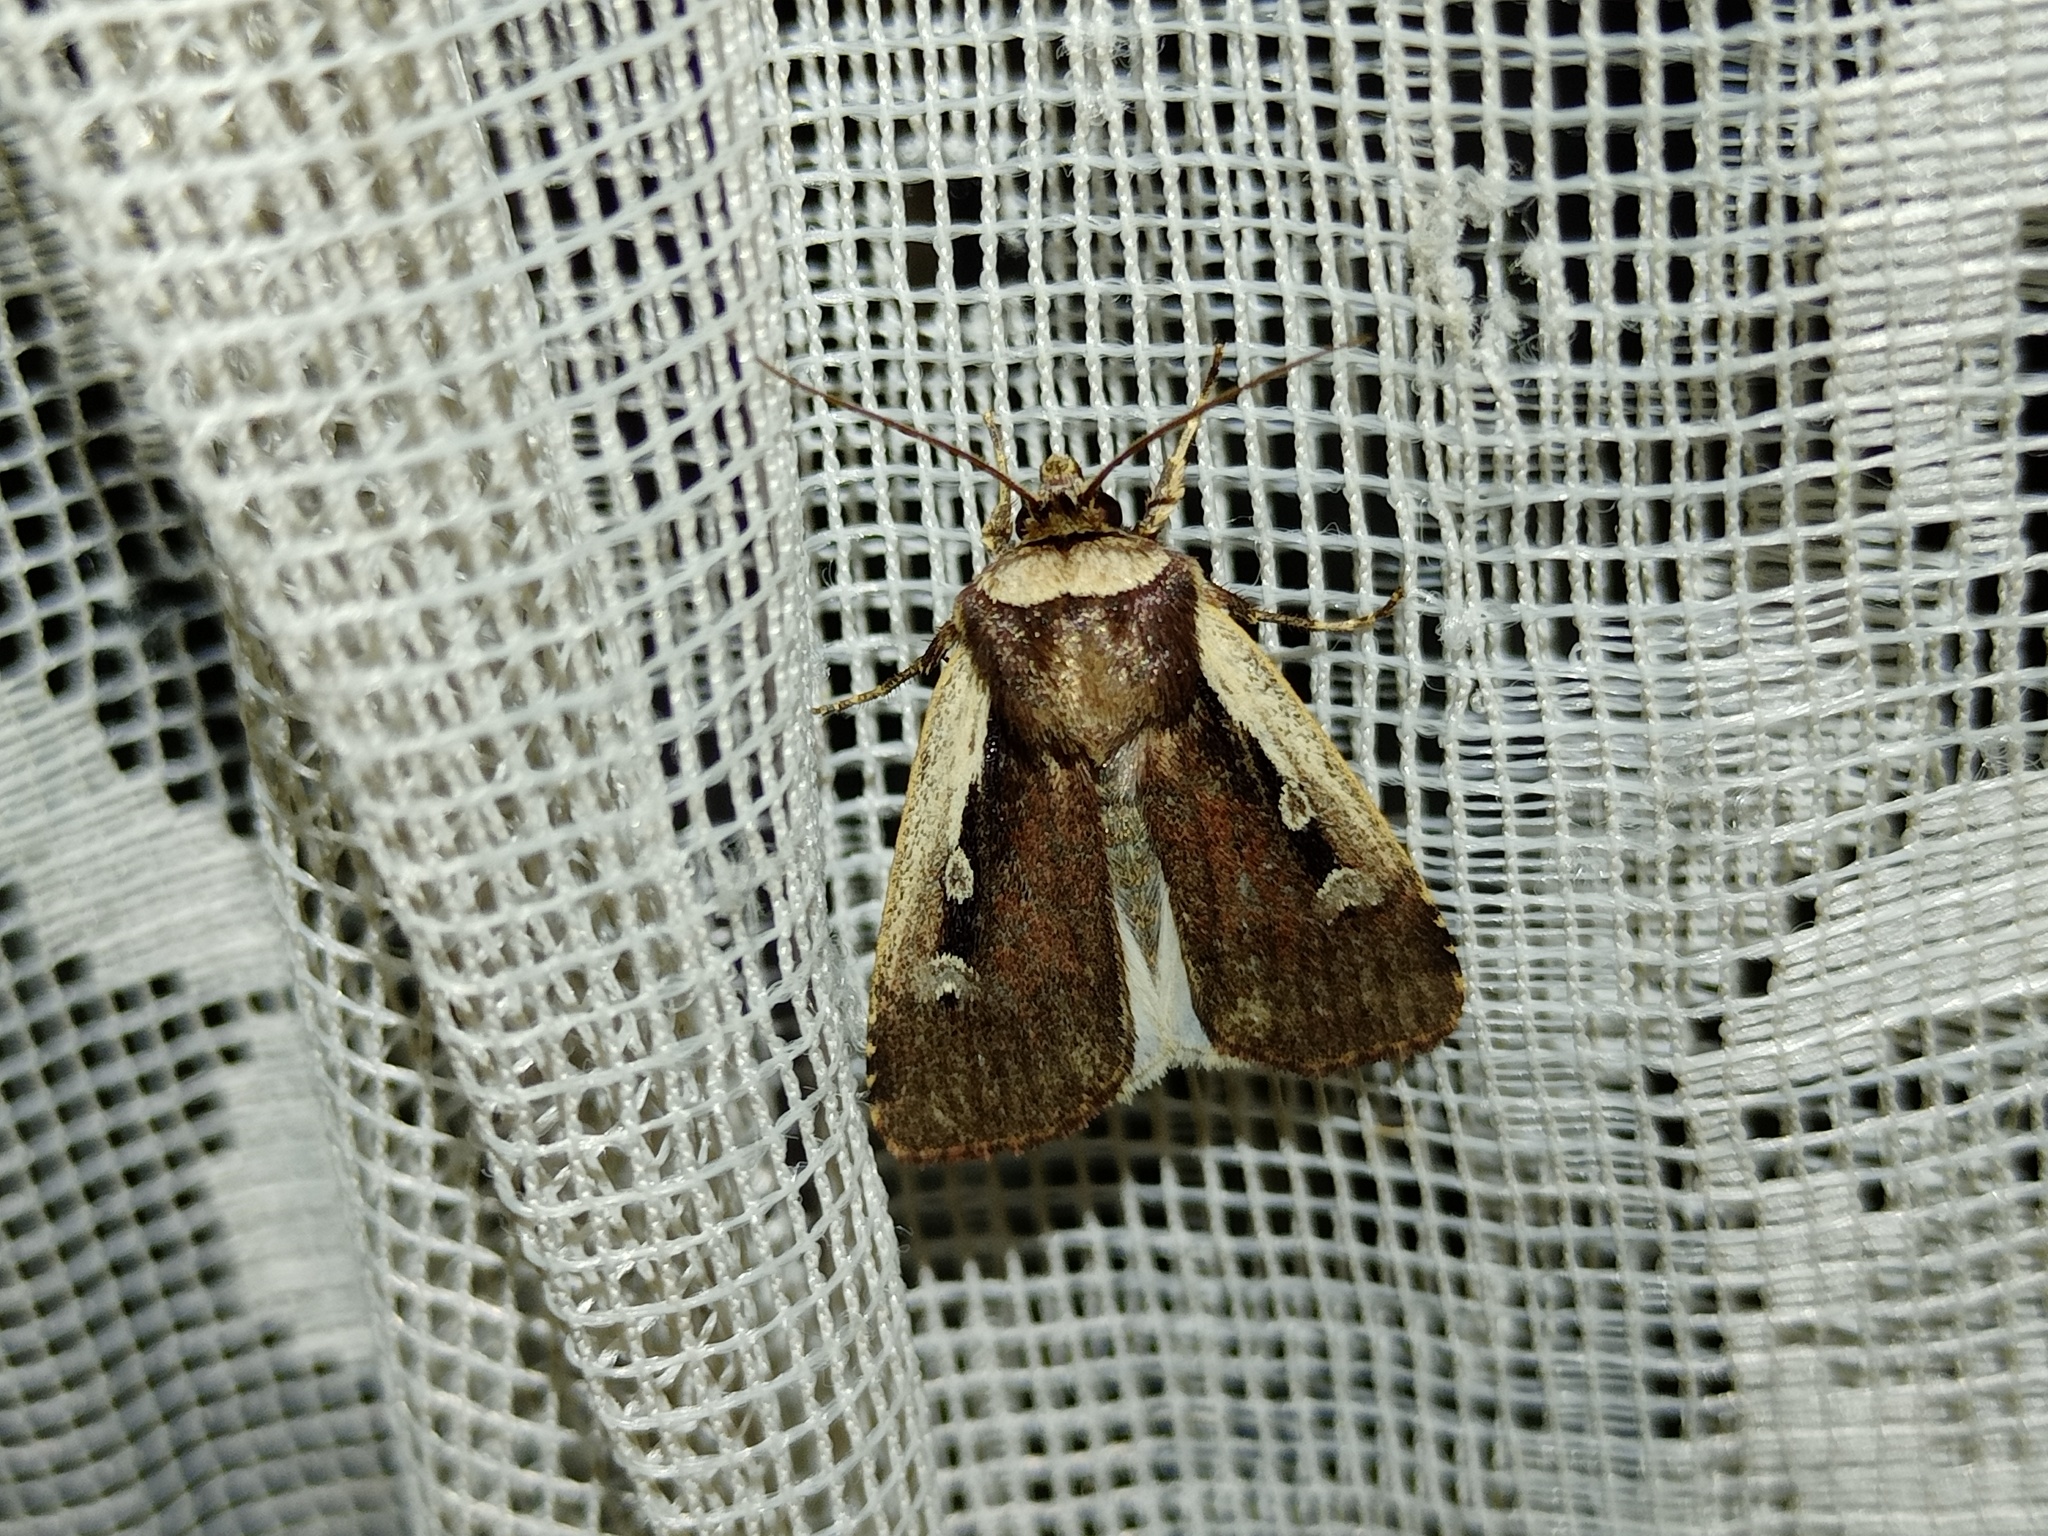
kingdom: Animalia
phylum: Arthropoda
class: Insecta
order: Lepidoptera
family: Noctuidae
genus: Ochropleura
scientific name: Ochropleura plecta
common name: Flame shoulder
